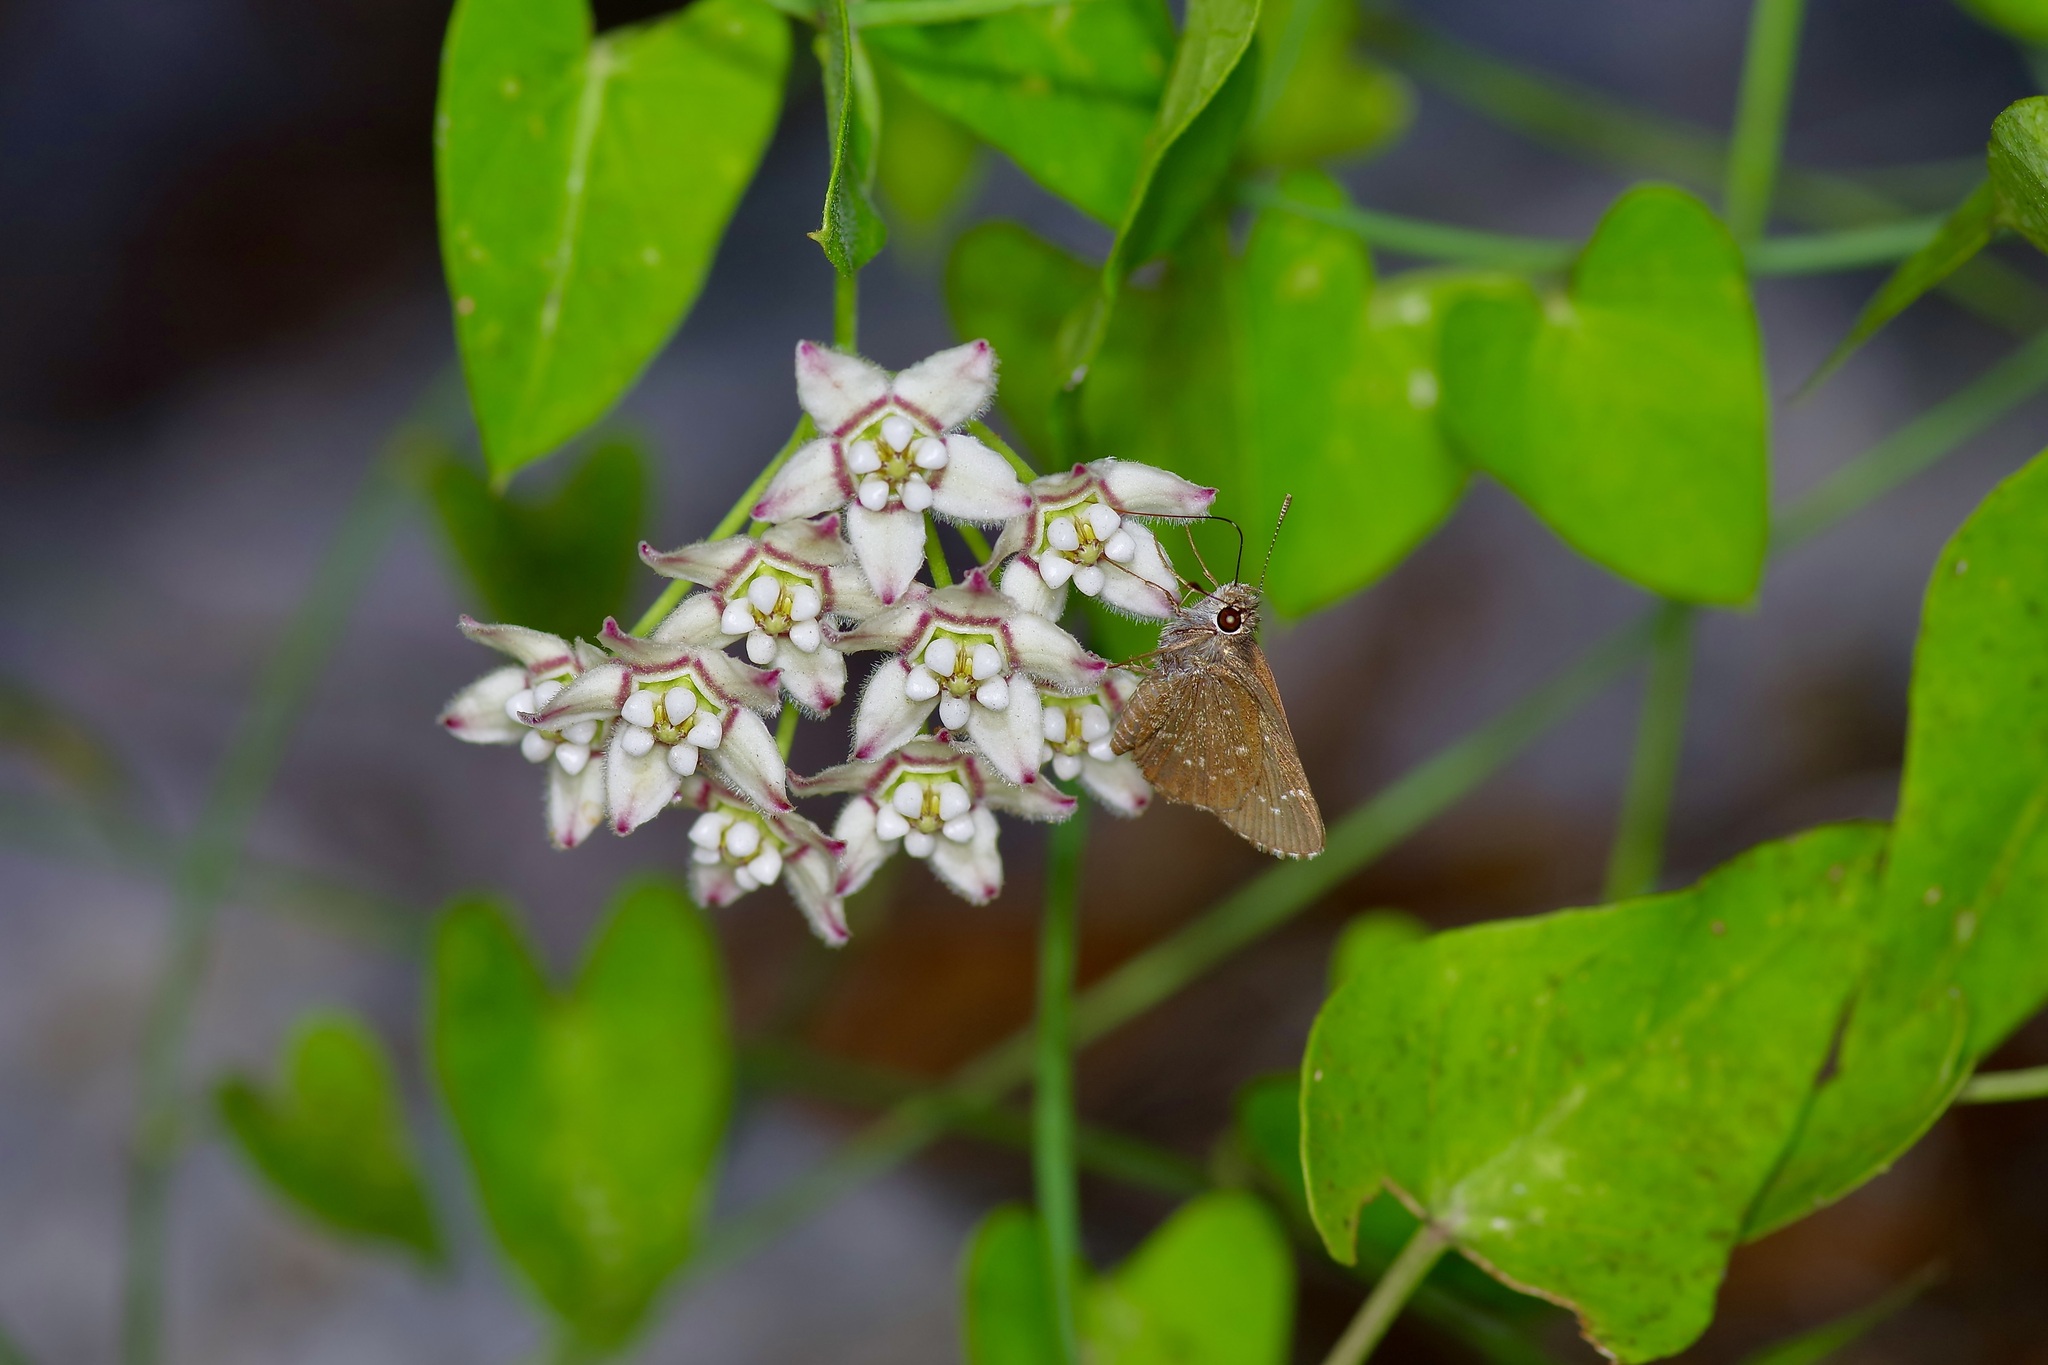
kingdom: Animalia
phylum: Arthropoda
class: Insecta
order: Lepidoptera
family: Hesperiidae
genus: Mastor
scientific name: Mastor celia
